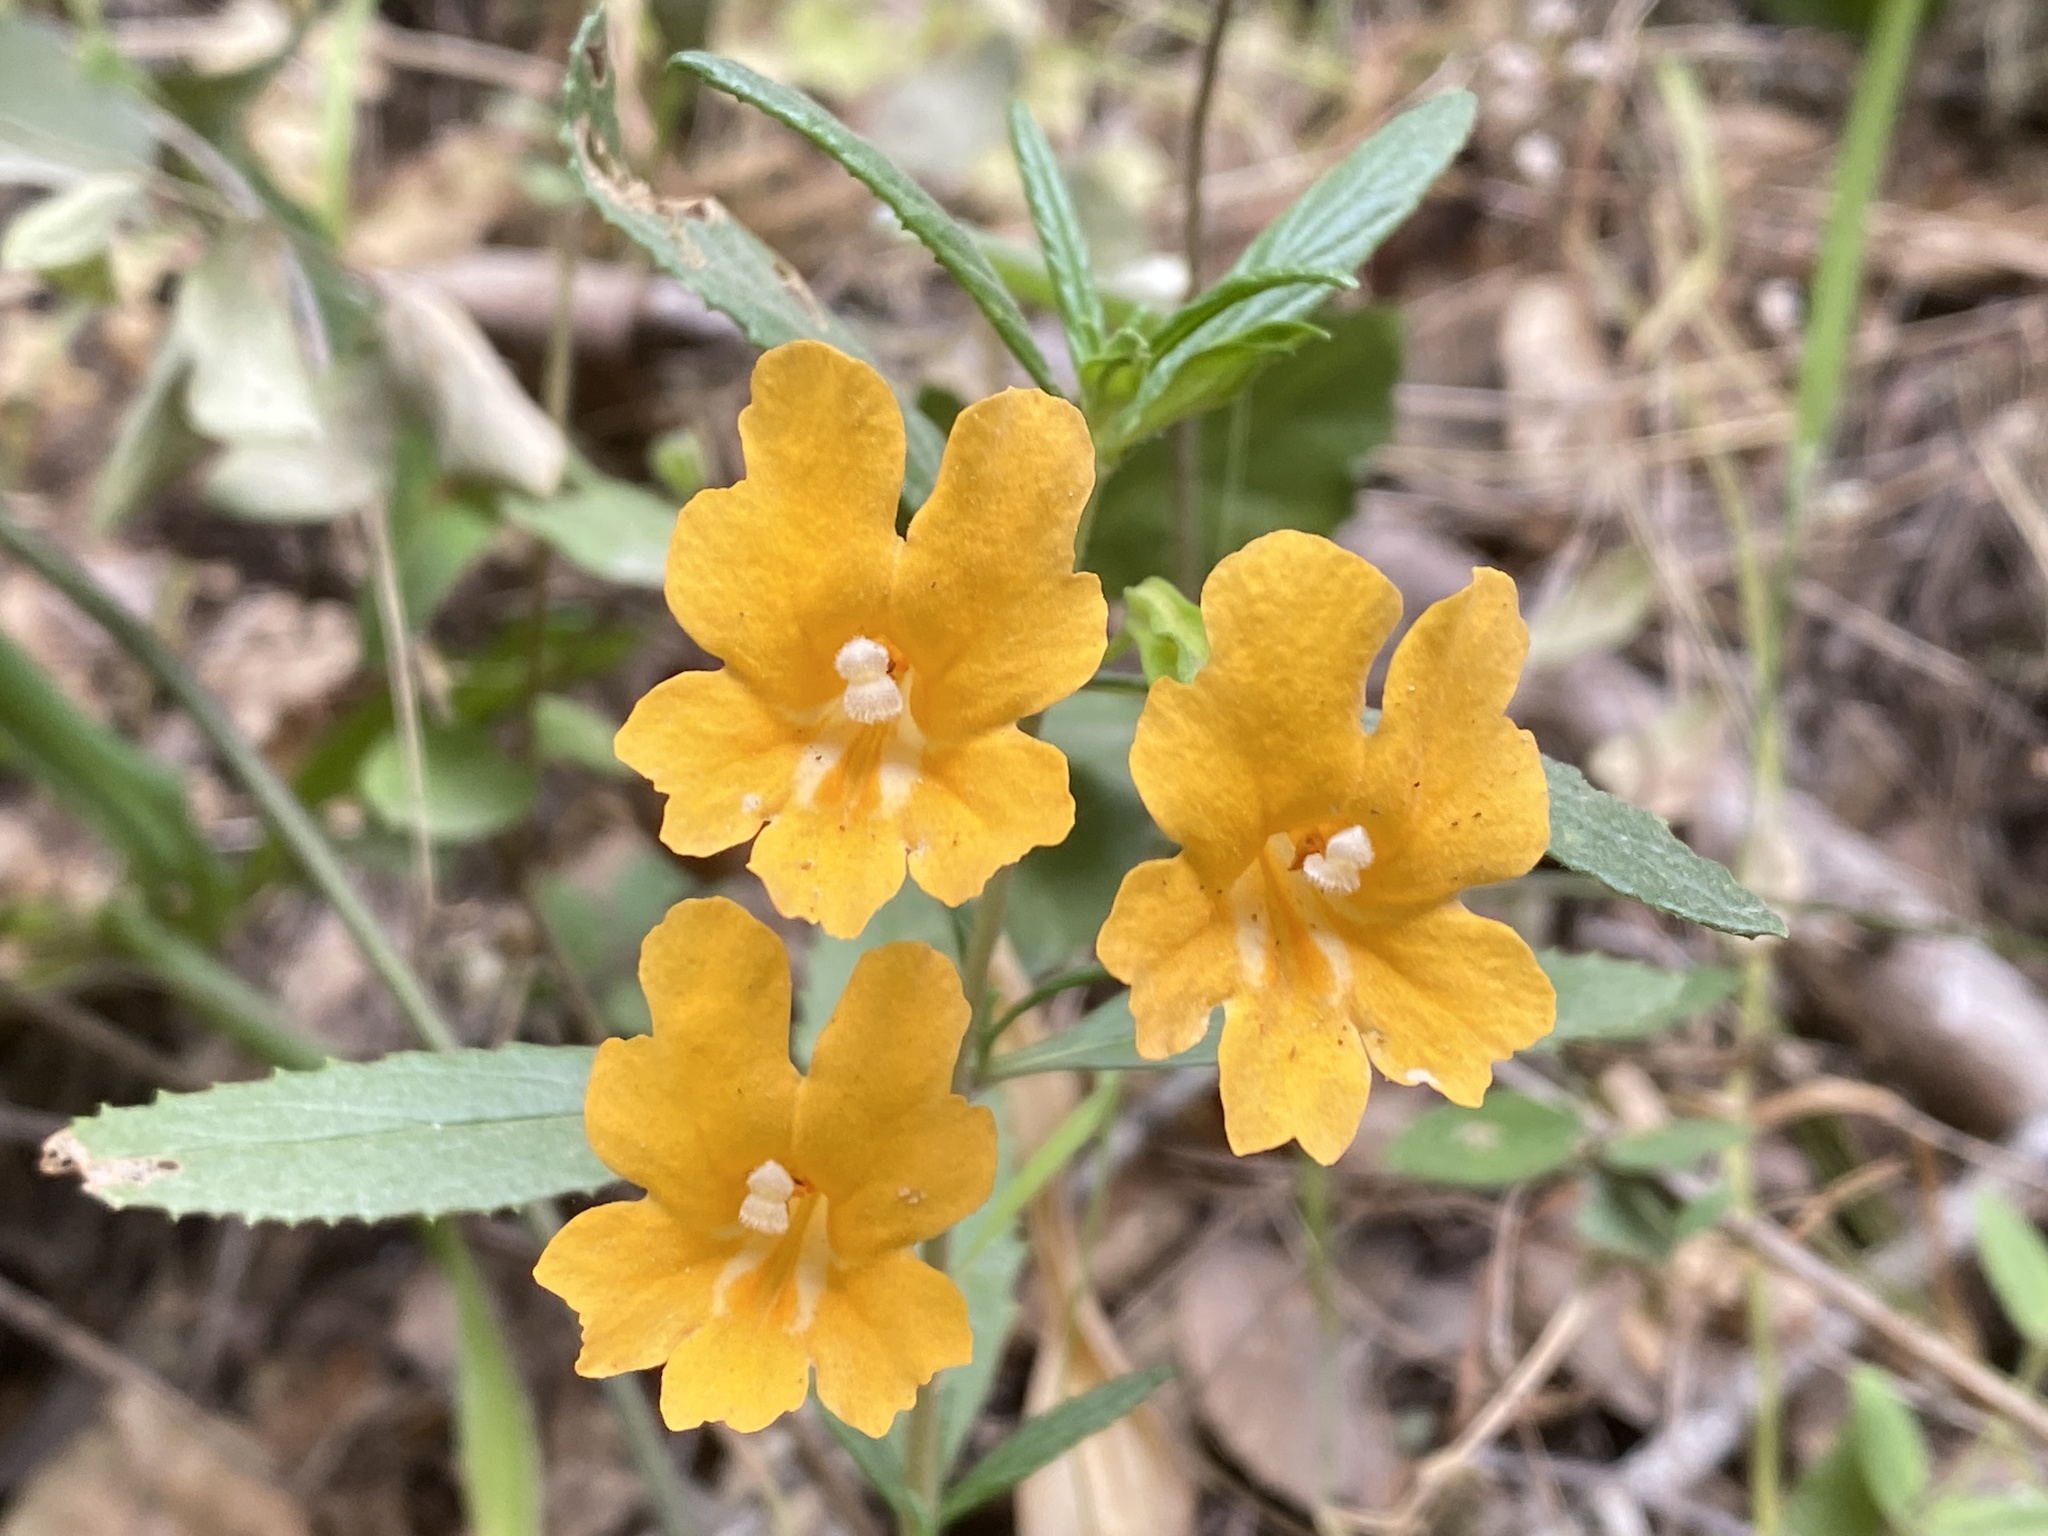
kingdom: Plantae
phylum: Tracheophyta
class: Magnoliopsida
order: Lamiales
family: Phrymaceae
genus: Diplacus
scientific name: Diplacus aurantiacus
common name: Bush monkey-flower
